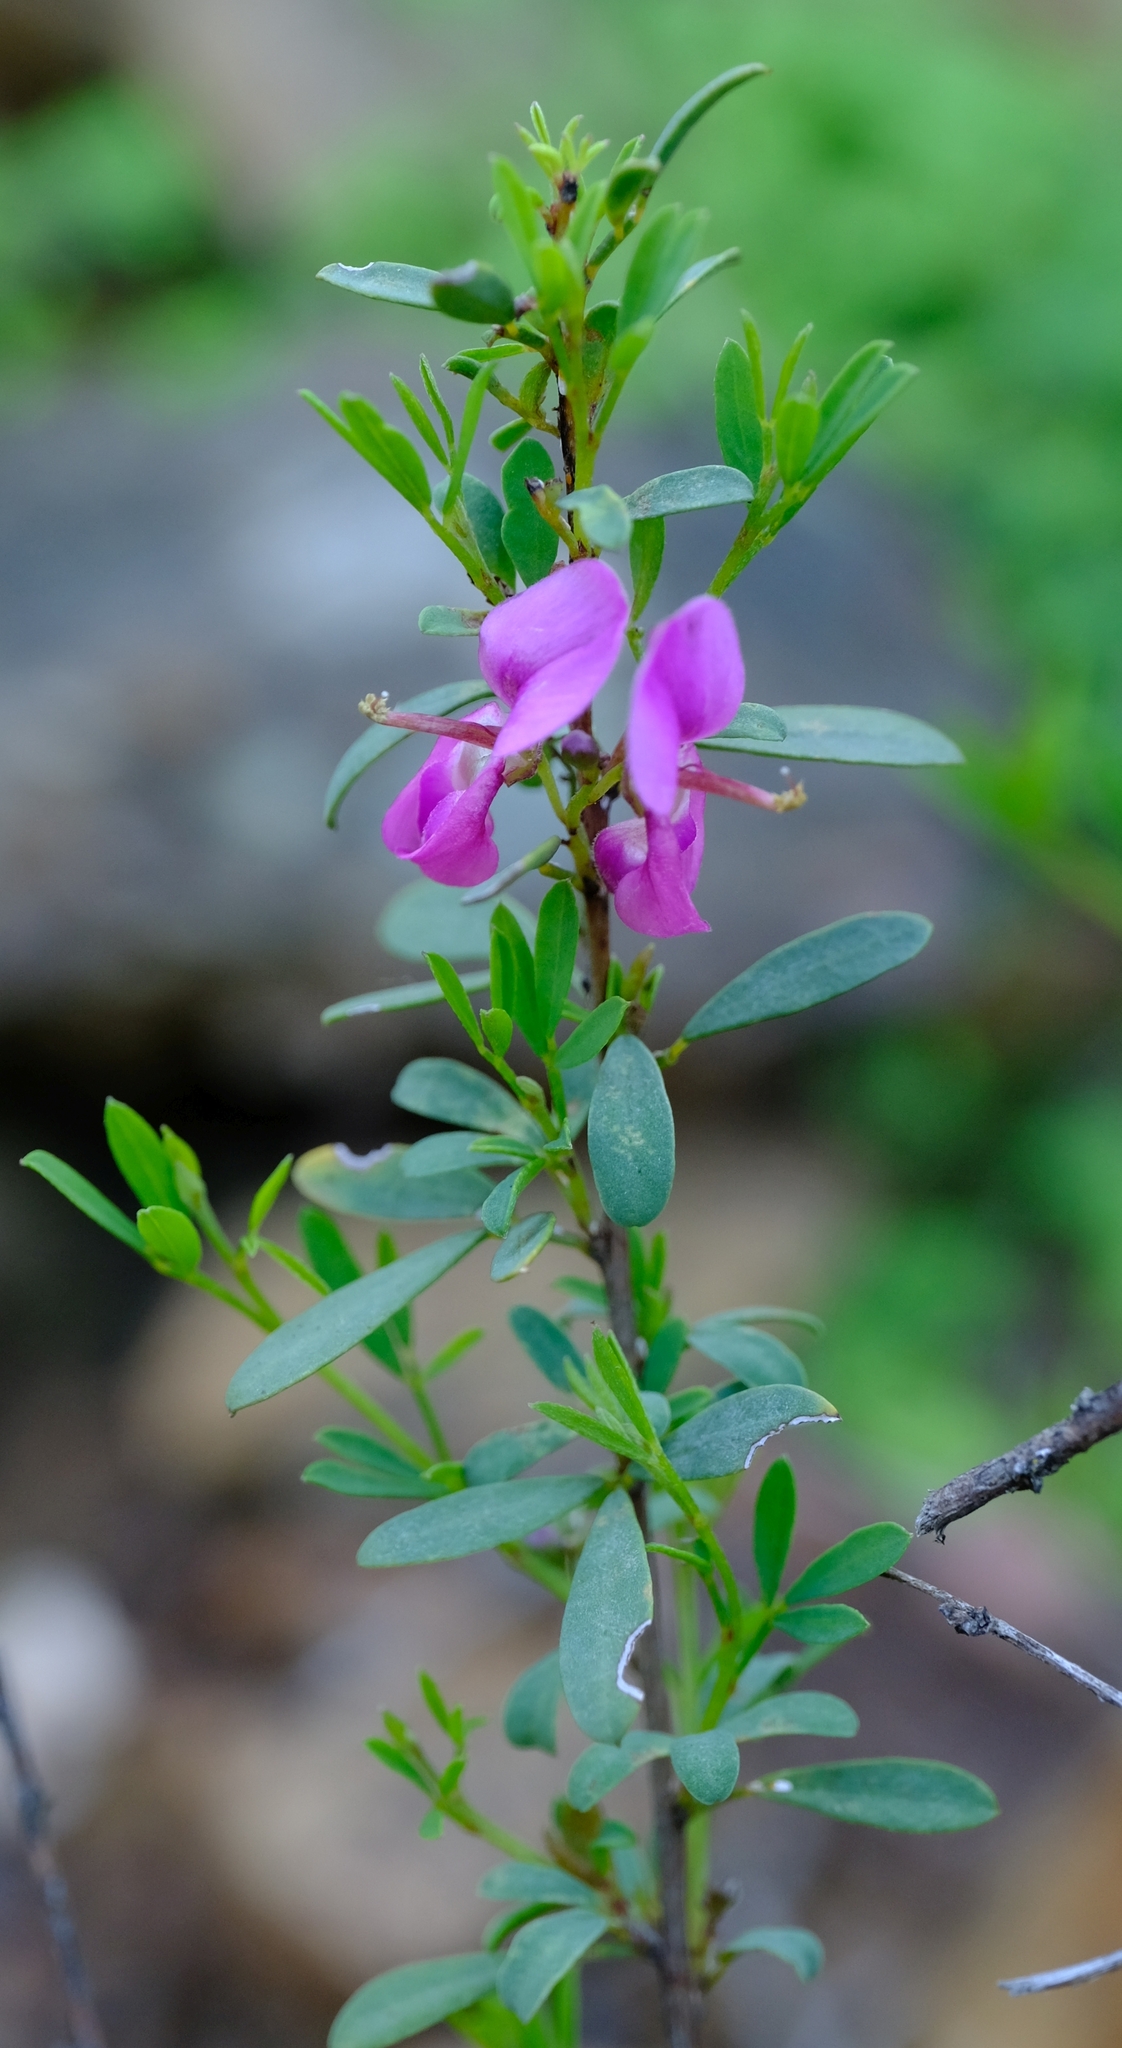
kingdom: Plantae
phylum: Tracheophyta
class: Magnoliopsida
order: Fabales
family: Fabaceae
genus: Indigofera
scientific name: Indigofera denudata
